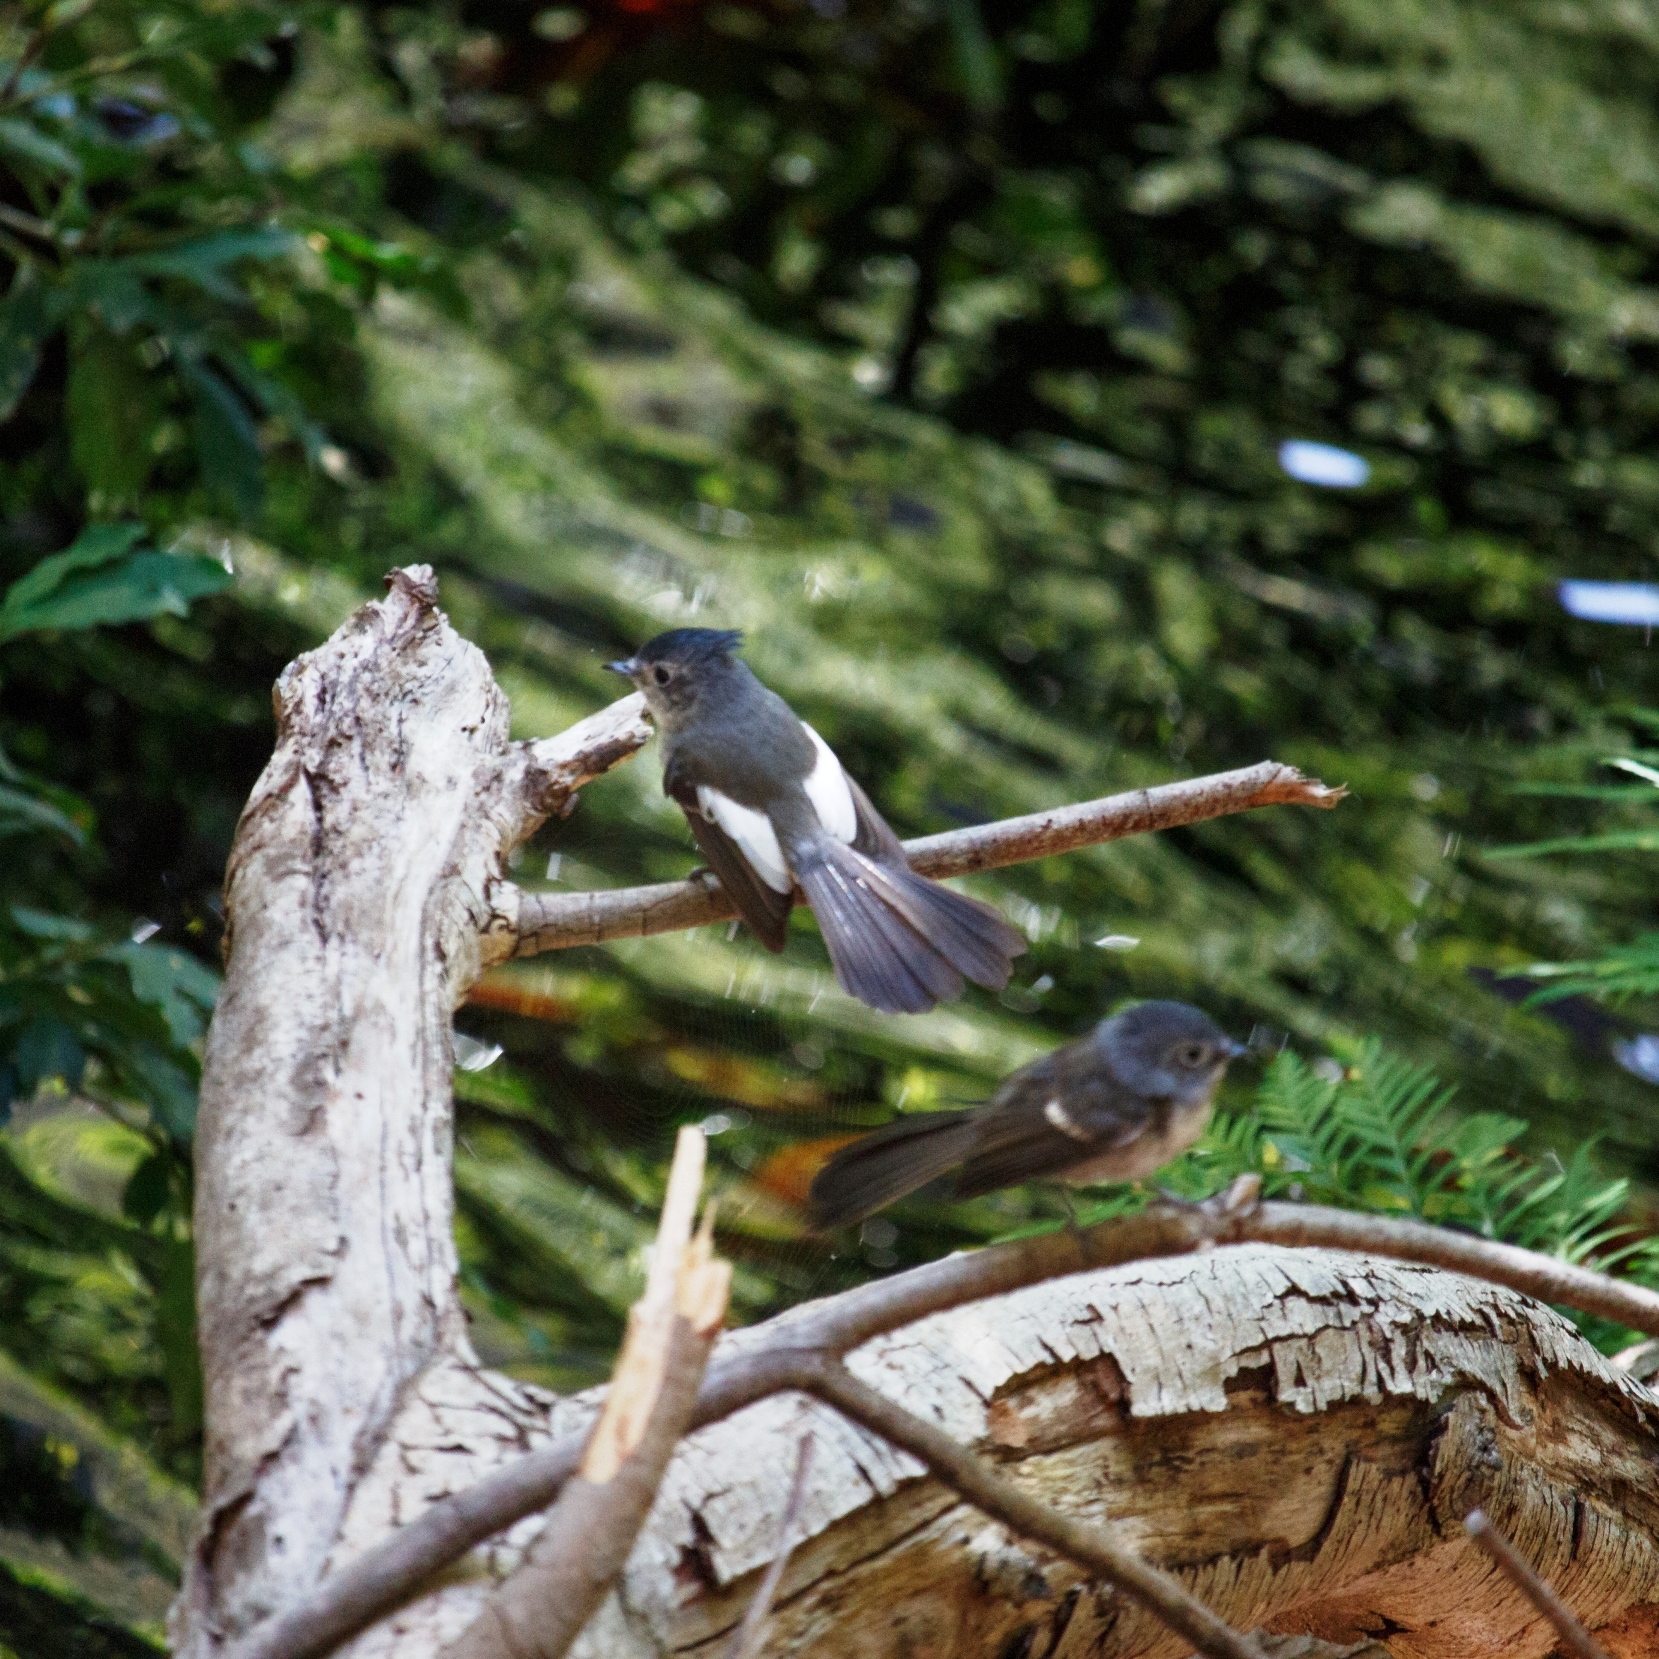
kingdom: Animalia
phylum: Chordata
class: Aves
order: Passeriformes
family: Monarchidae
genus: Trochocercus
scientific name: Trochocercus cyanomelas
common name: Blue-mantled crested flycatcher
